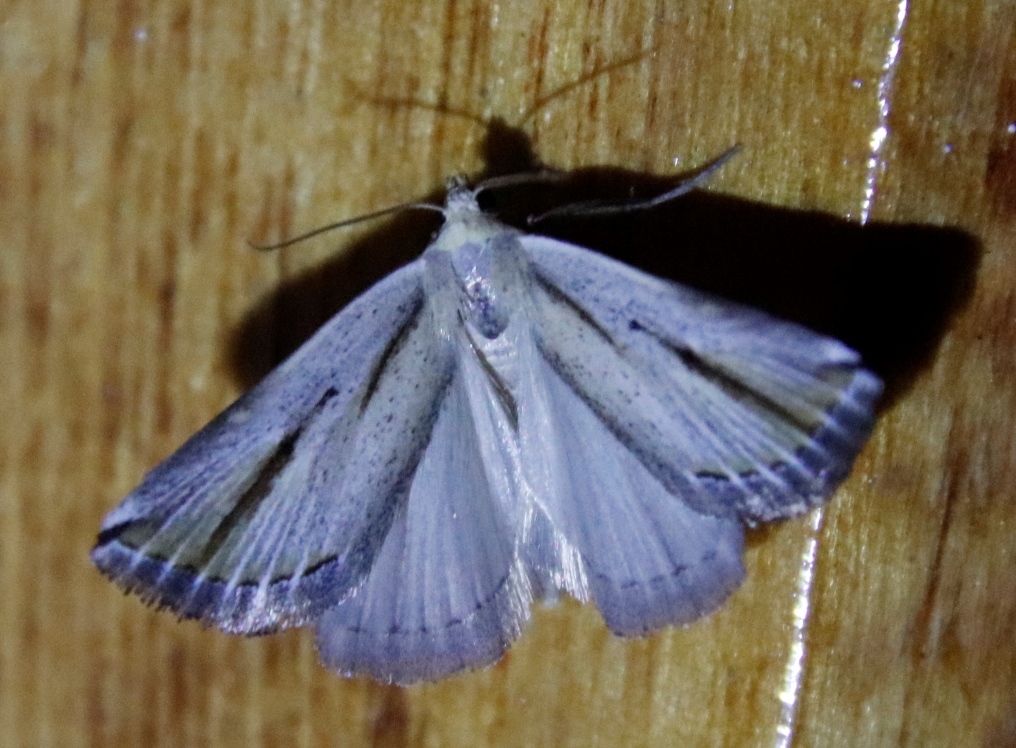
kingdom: Animalia
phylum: Arthropoda
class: Insecta
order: Lepidoptera
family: Noctuidae
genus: Eublemma
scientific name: Eublemma foedosa
